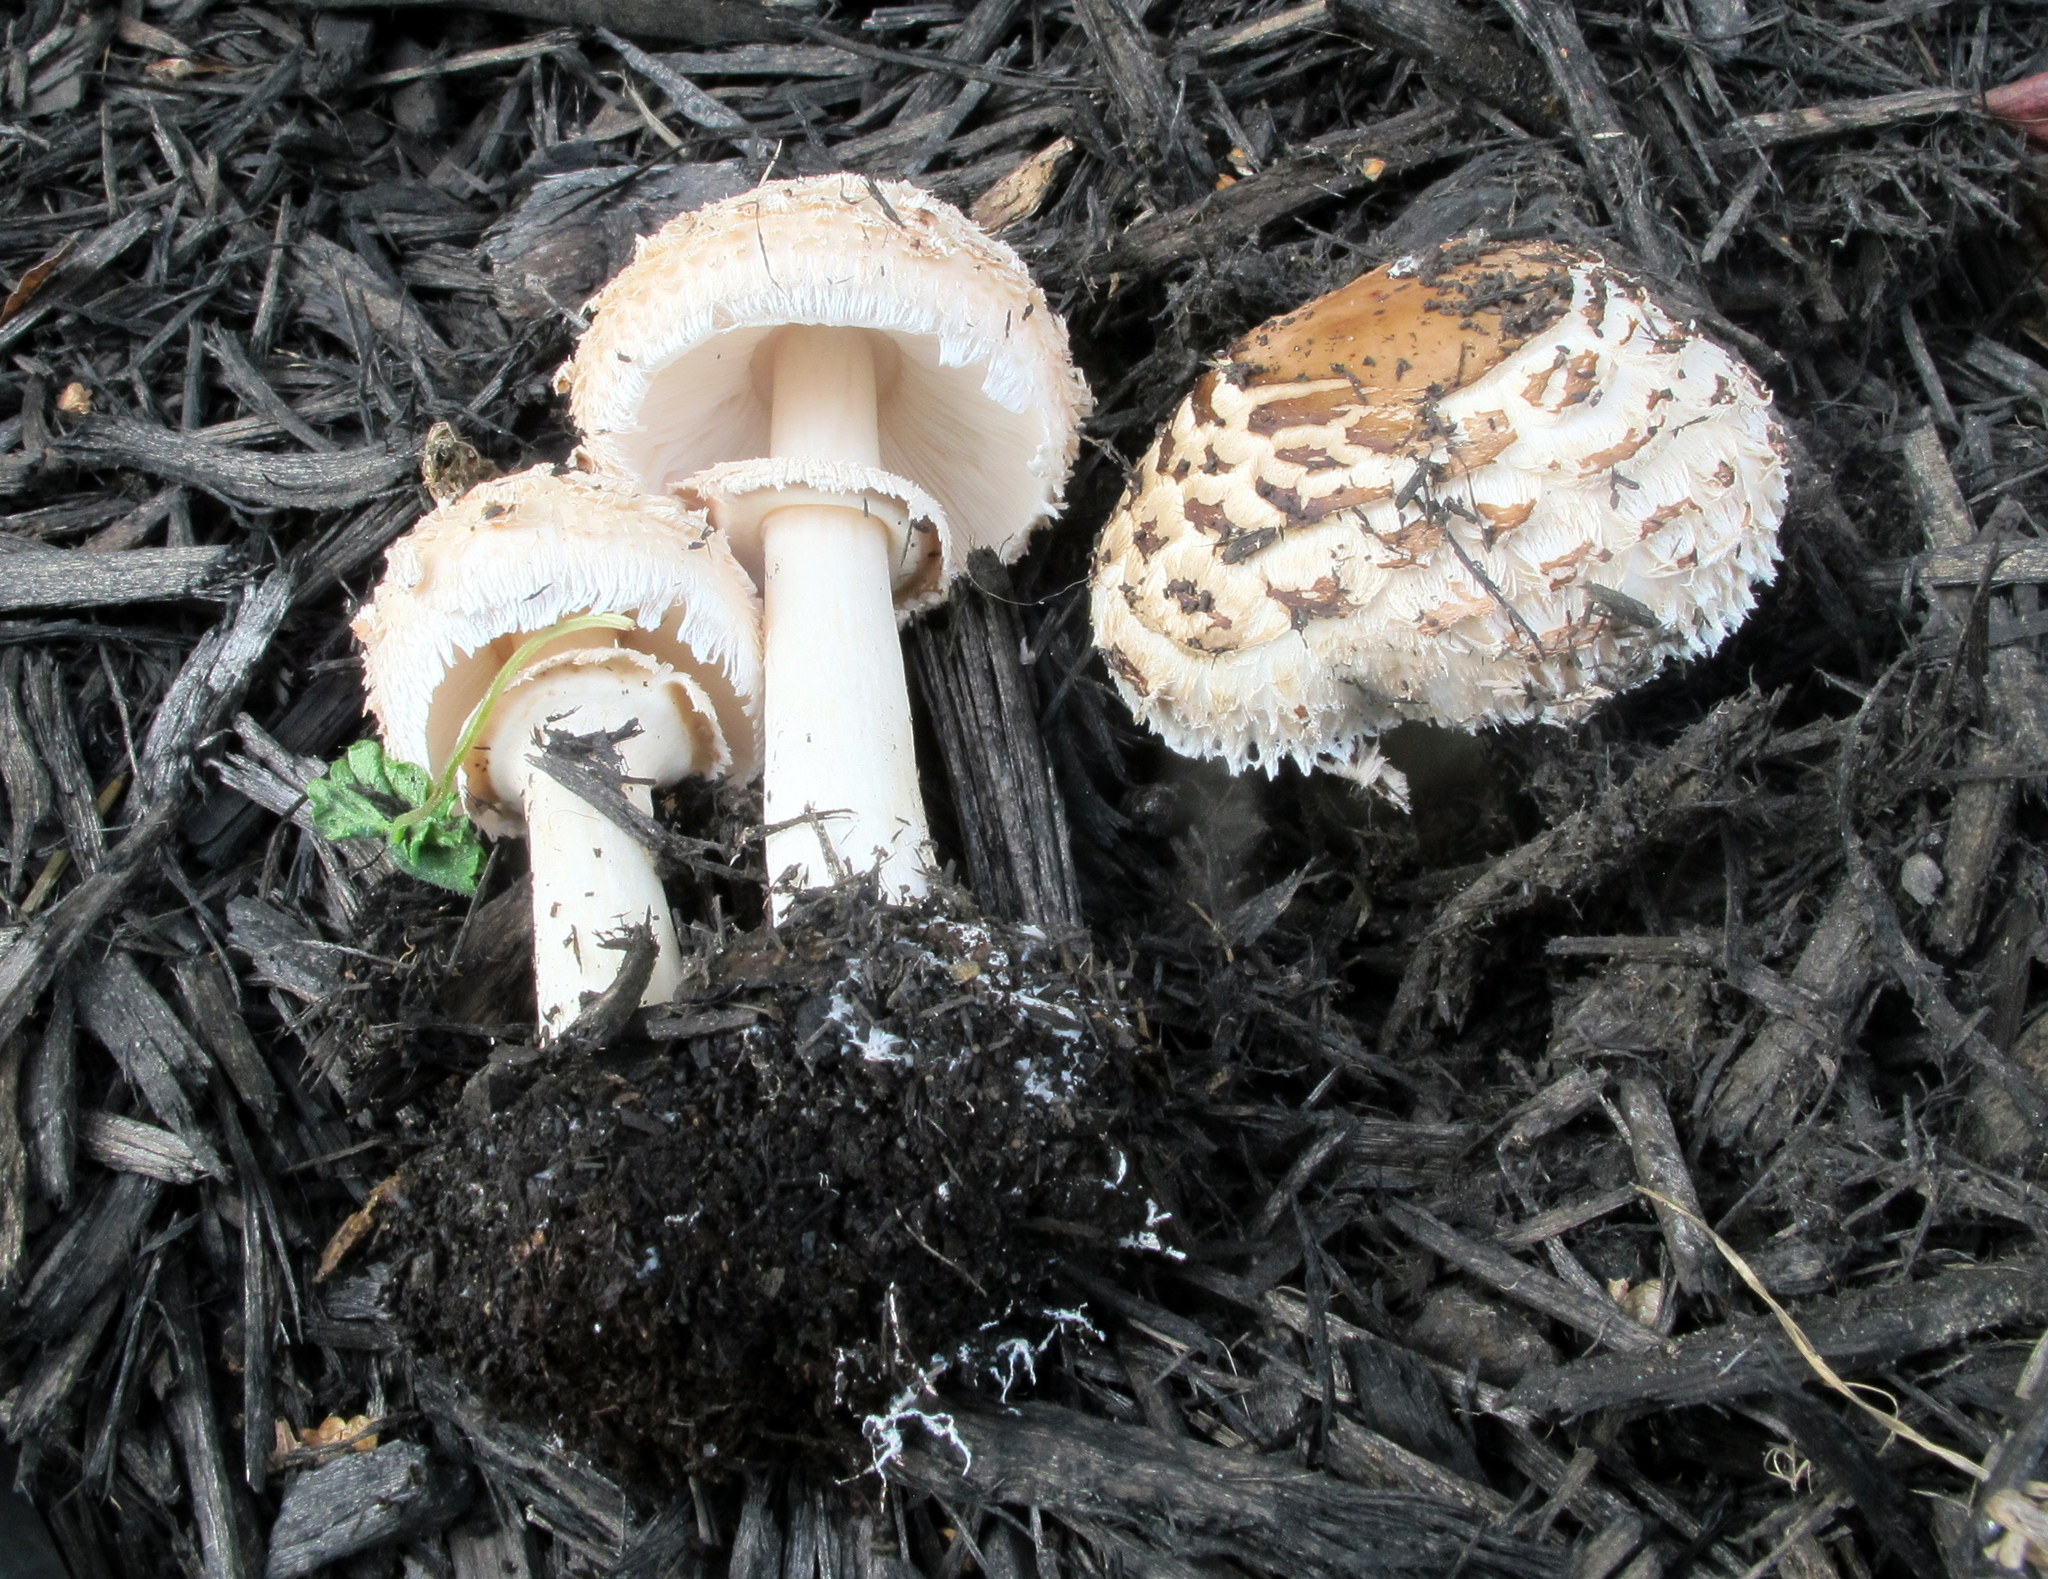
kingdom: Fungi
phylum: Basidiomycota
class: Agaricomycetes
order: Agaricales
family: Agaricaceae
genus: Chlorophyllum
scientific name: Chlorophyllum rhacodes
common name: Shaggy parasol
